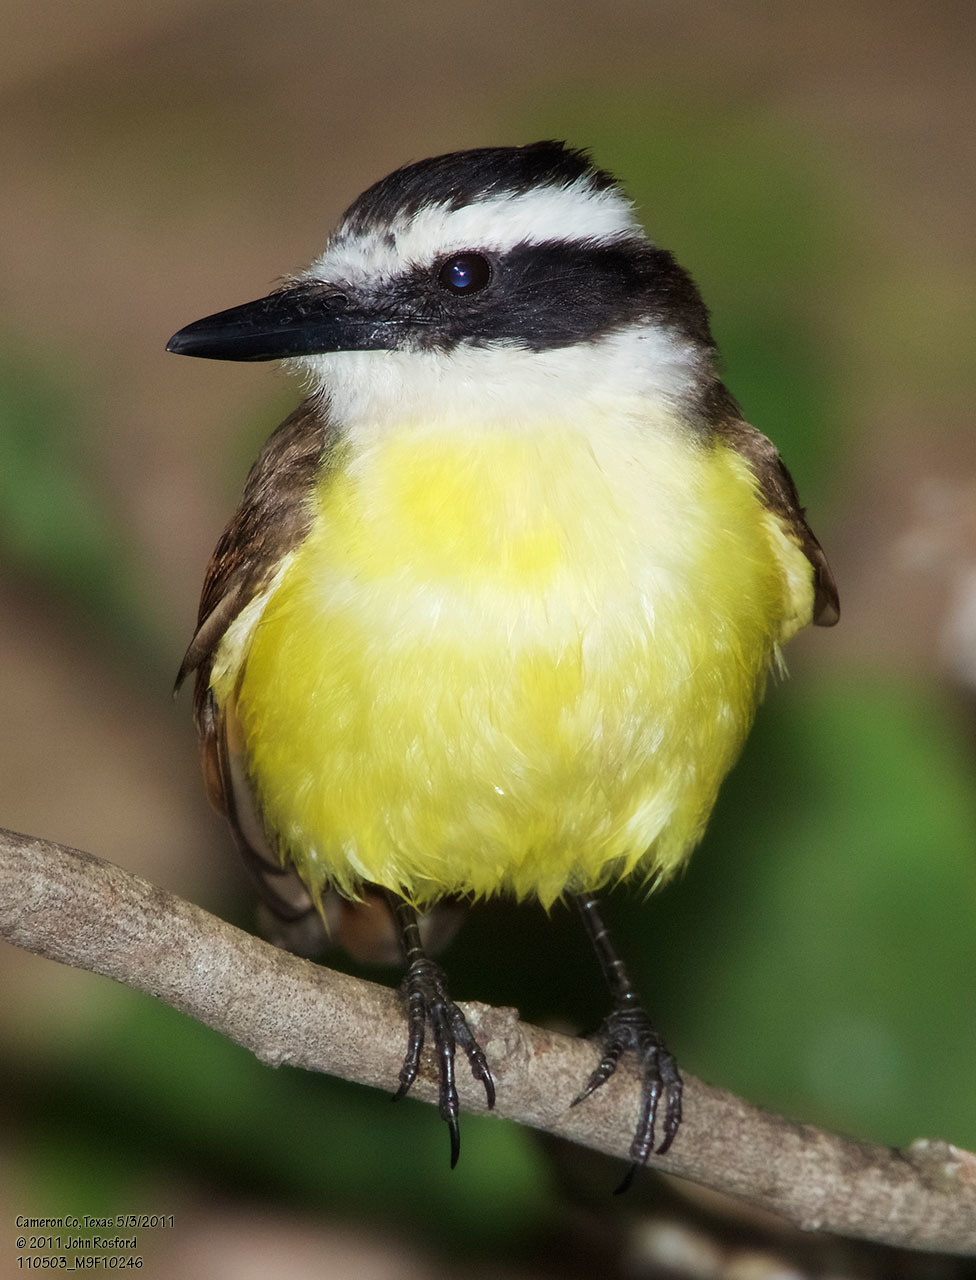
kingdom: Animalia
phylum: Chordata
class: Aves
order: Passeriformes
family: Tyrannidae
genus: Pitangus
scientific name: Pitangus sulphuratus
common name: Great kiskadee
